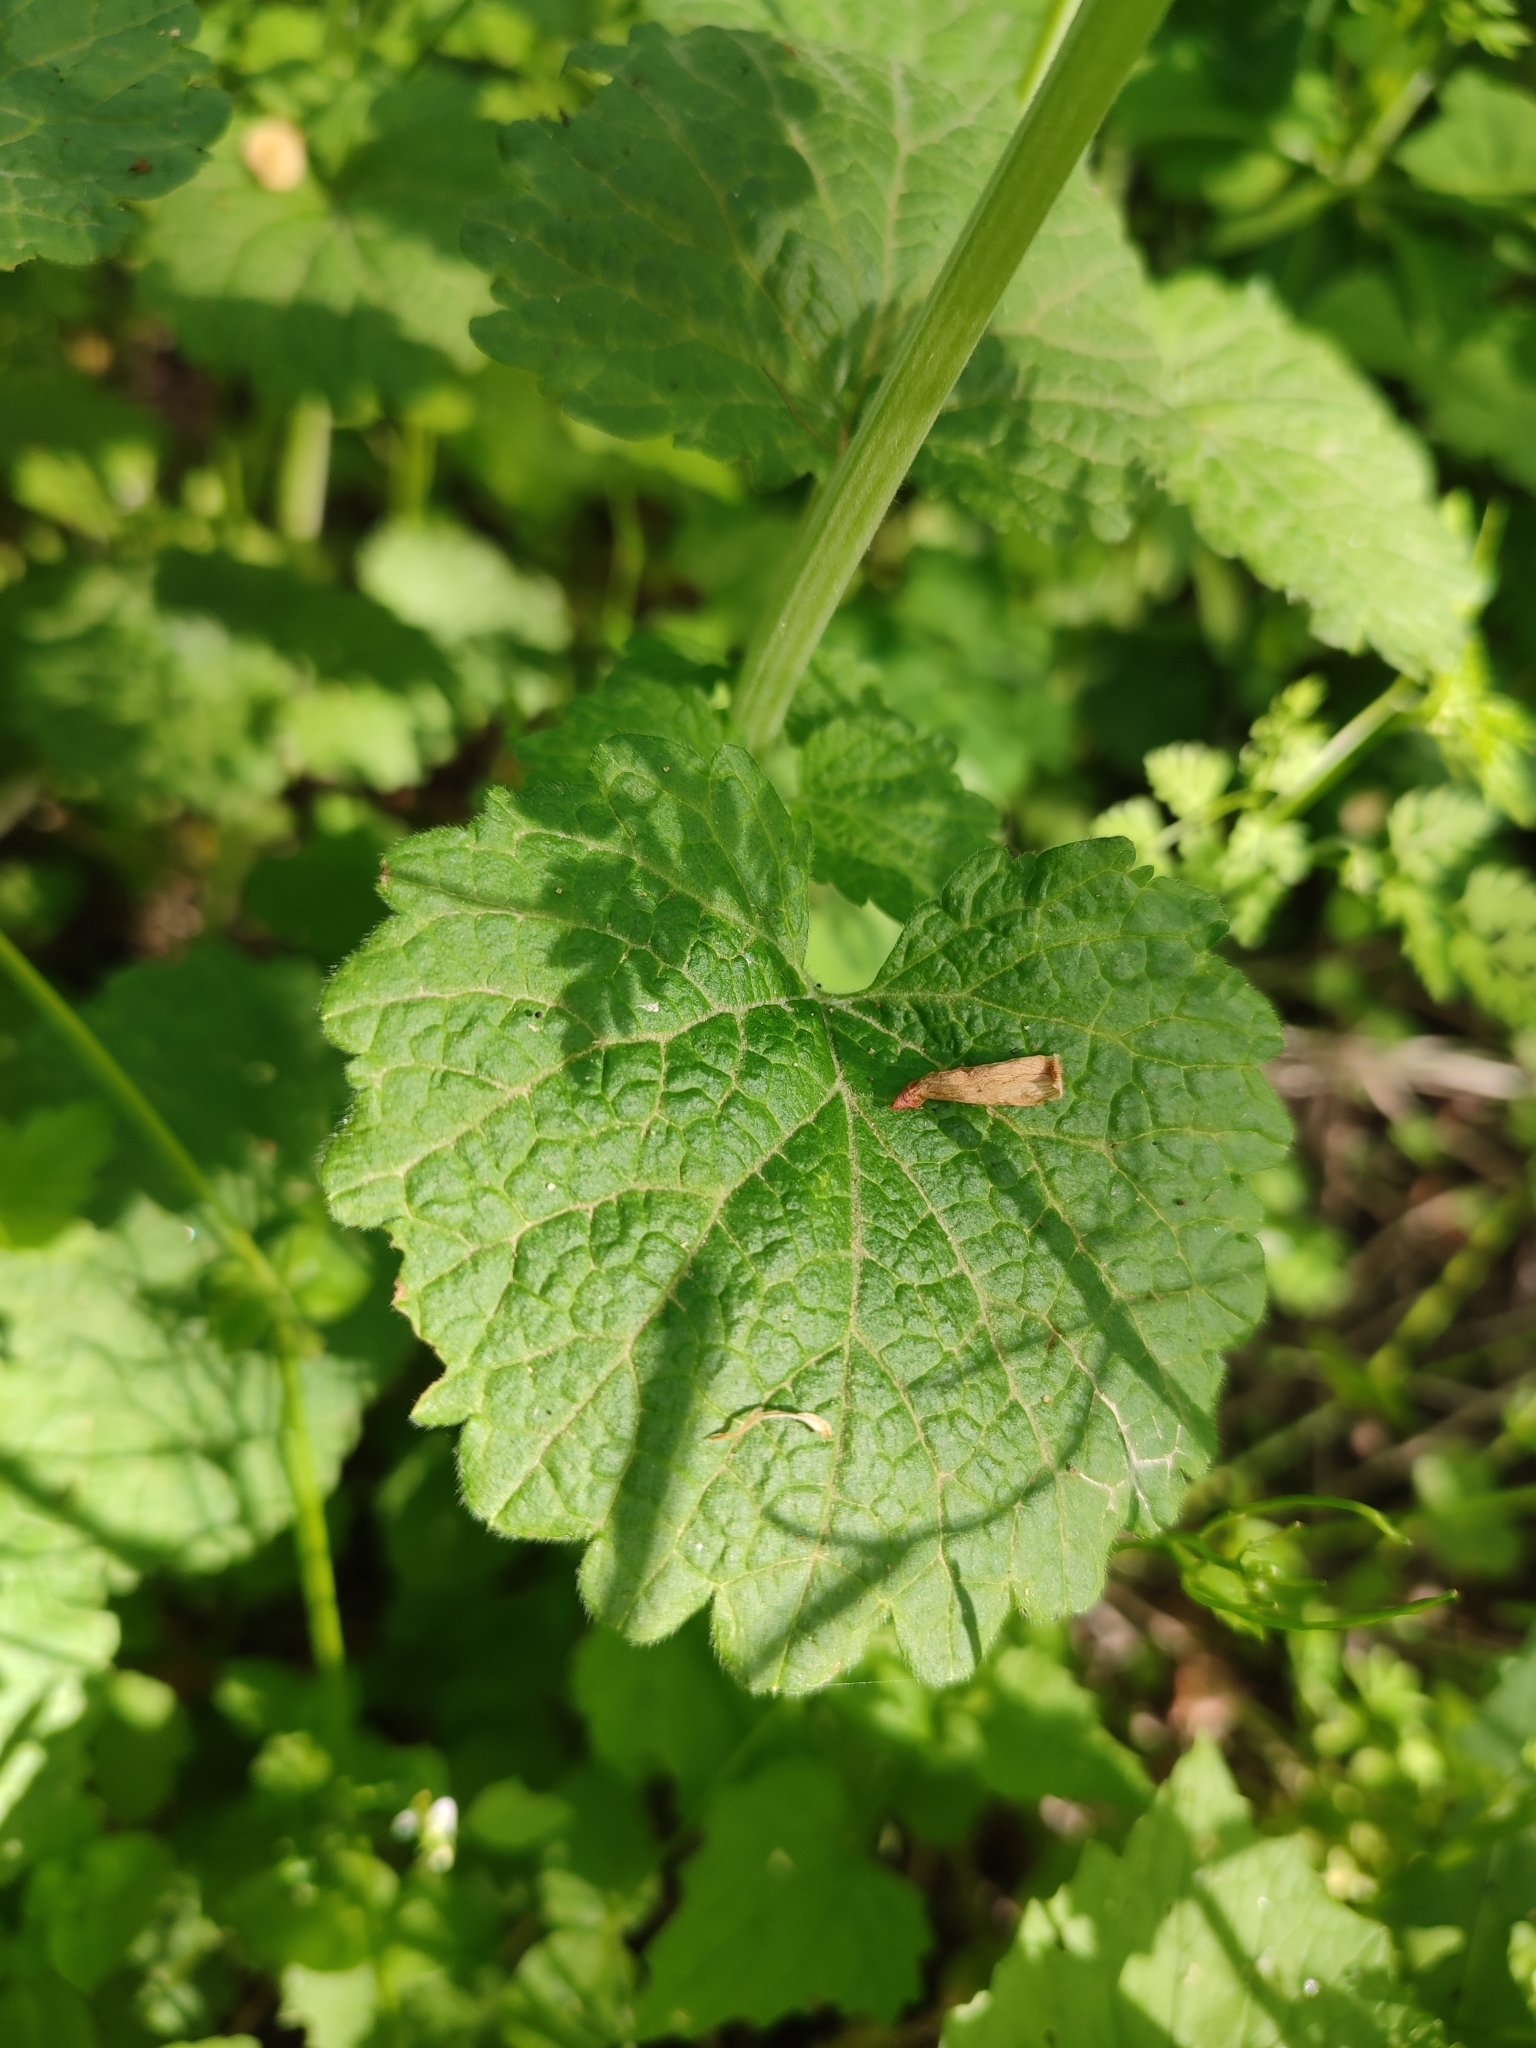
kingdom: Plantae
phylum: Tracheophyta
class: Magnoliopsida
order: Lamiales
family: Lamiaceae
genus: Ballota
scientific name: Ballota nigra
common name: Black horehound
